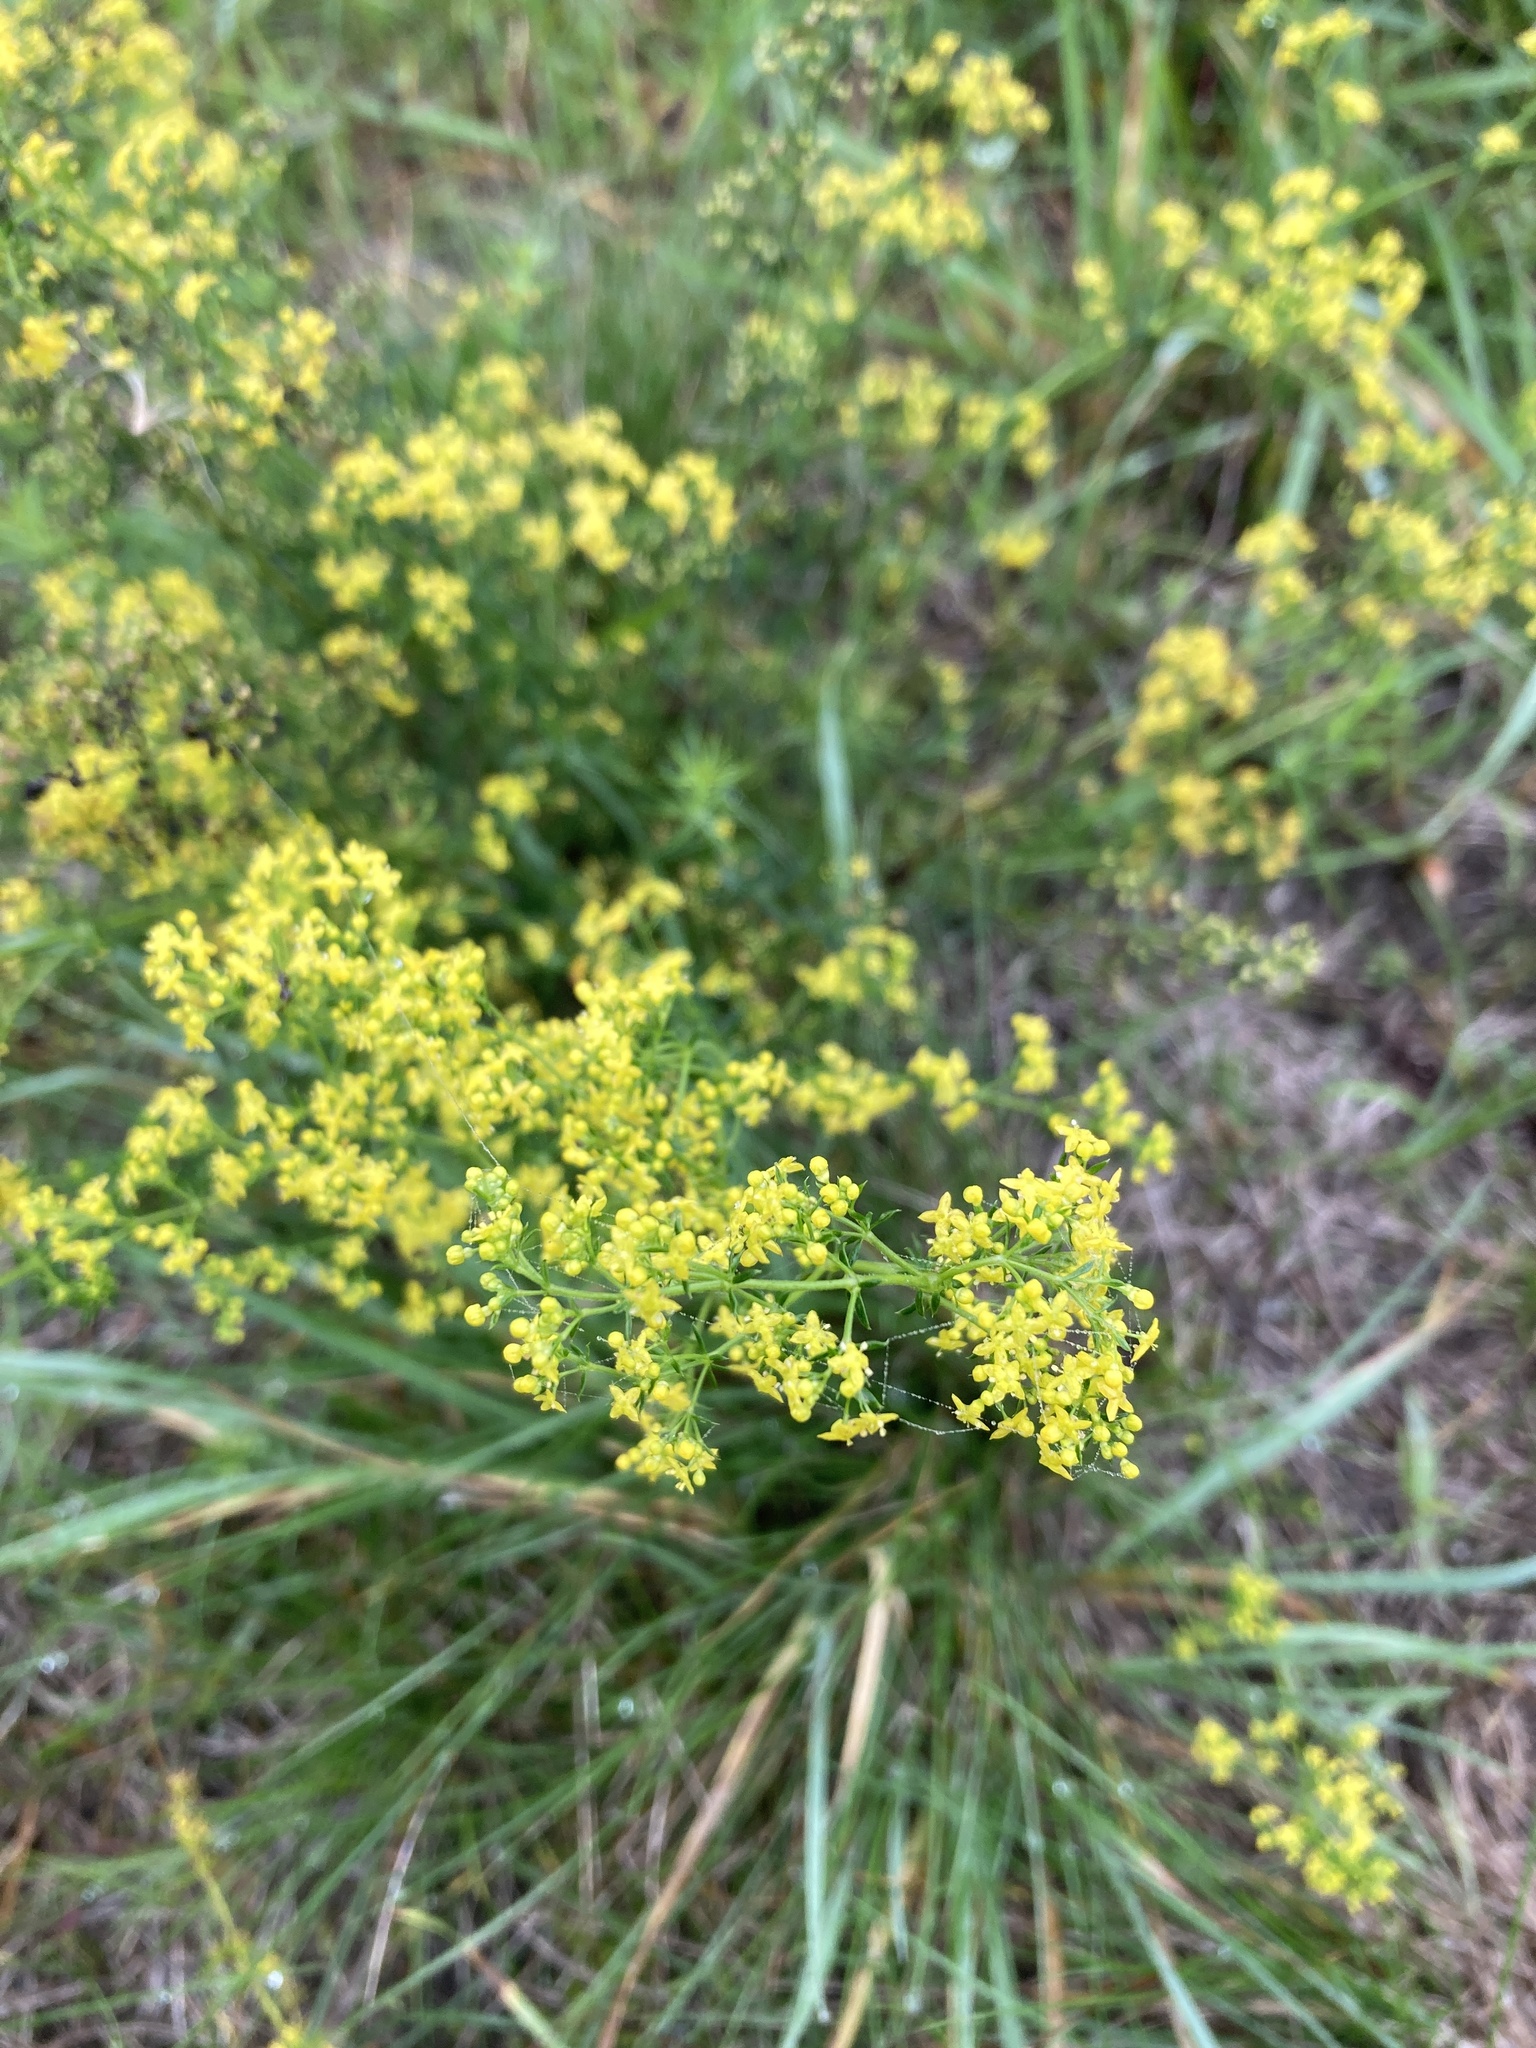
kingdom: Plantae
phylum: Tracheophyta
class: Magnoliopsida
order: Gentianales
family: Rubiaceae
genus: Galium
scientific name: Galium verum
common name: Lady's bedstraw
